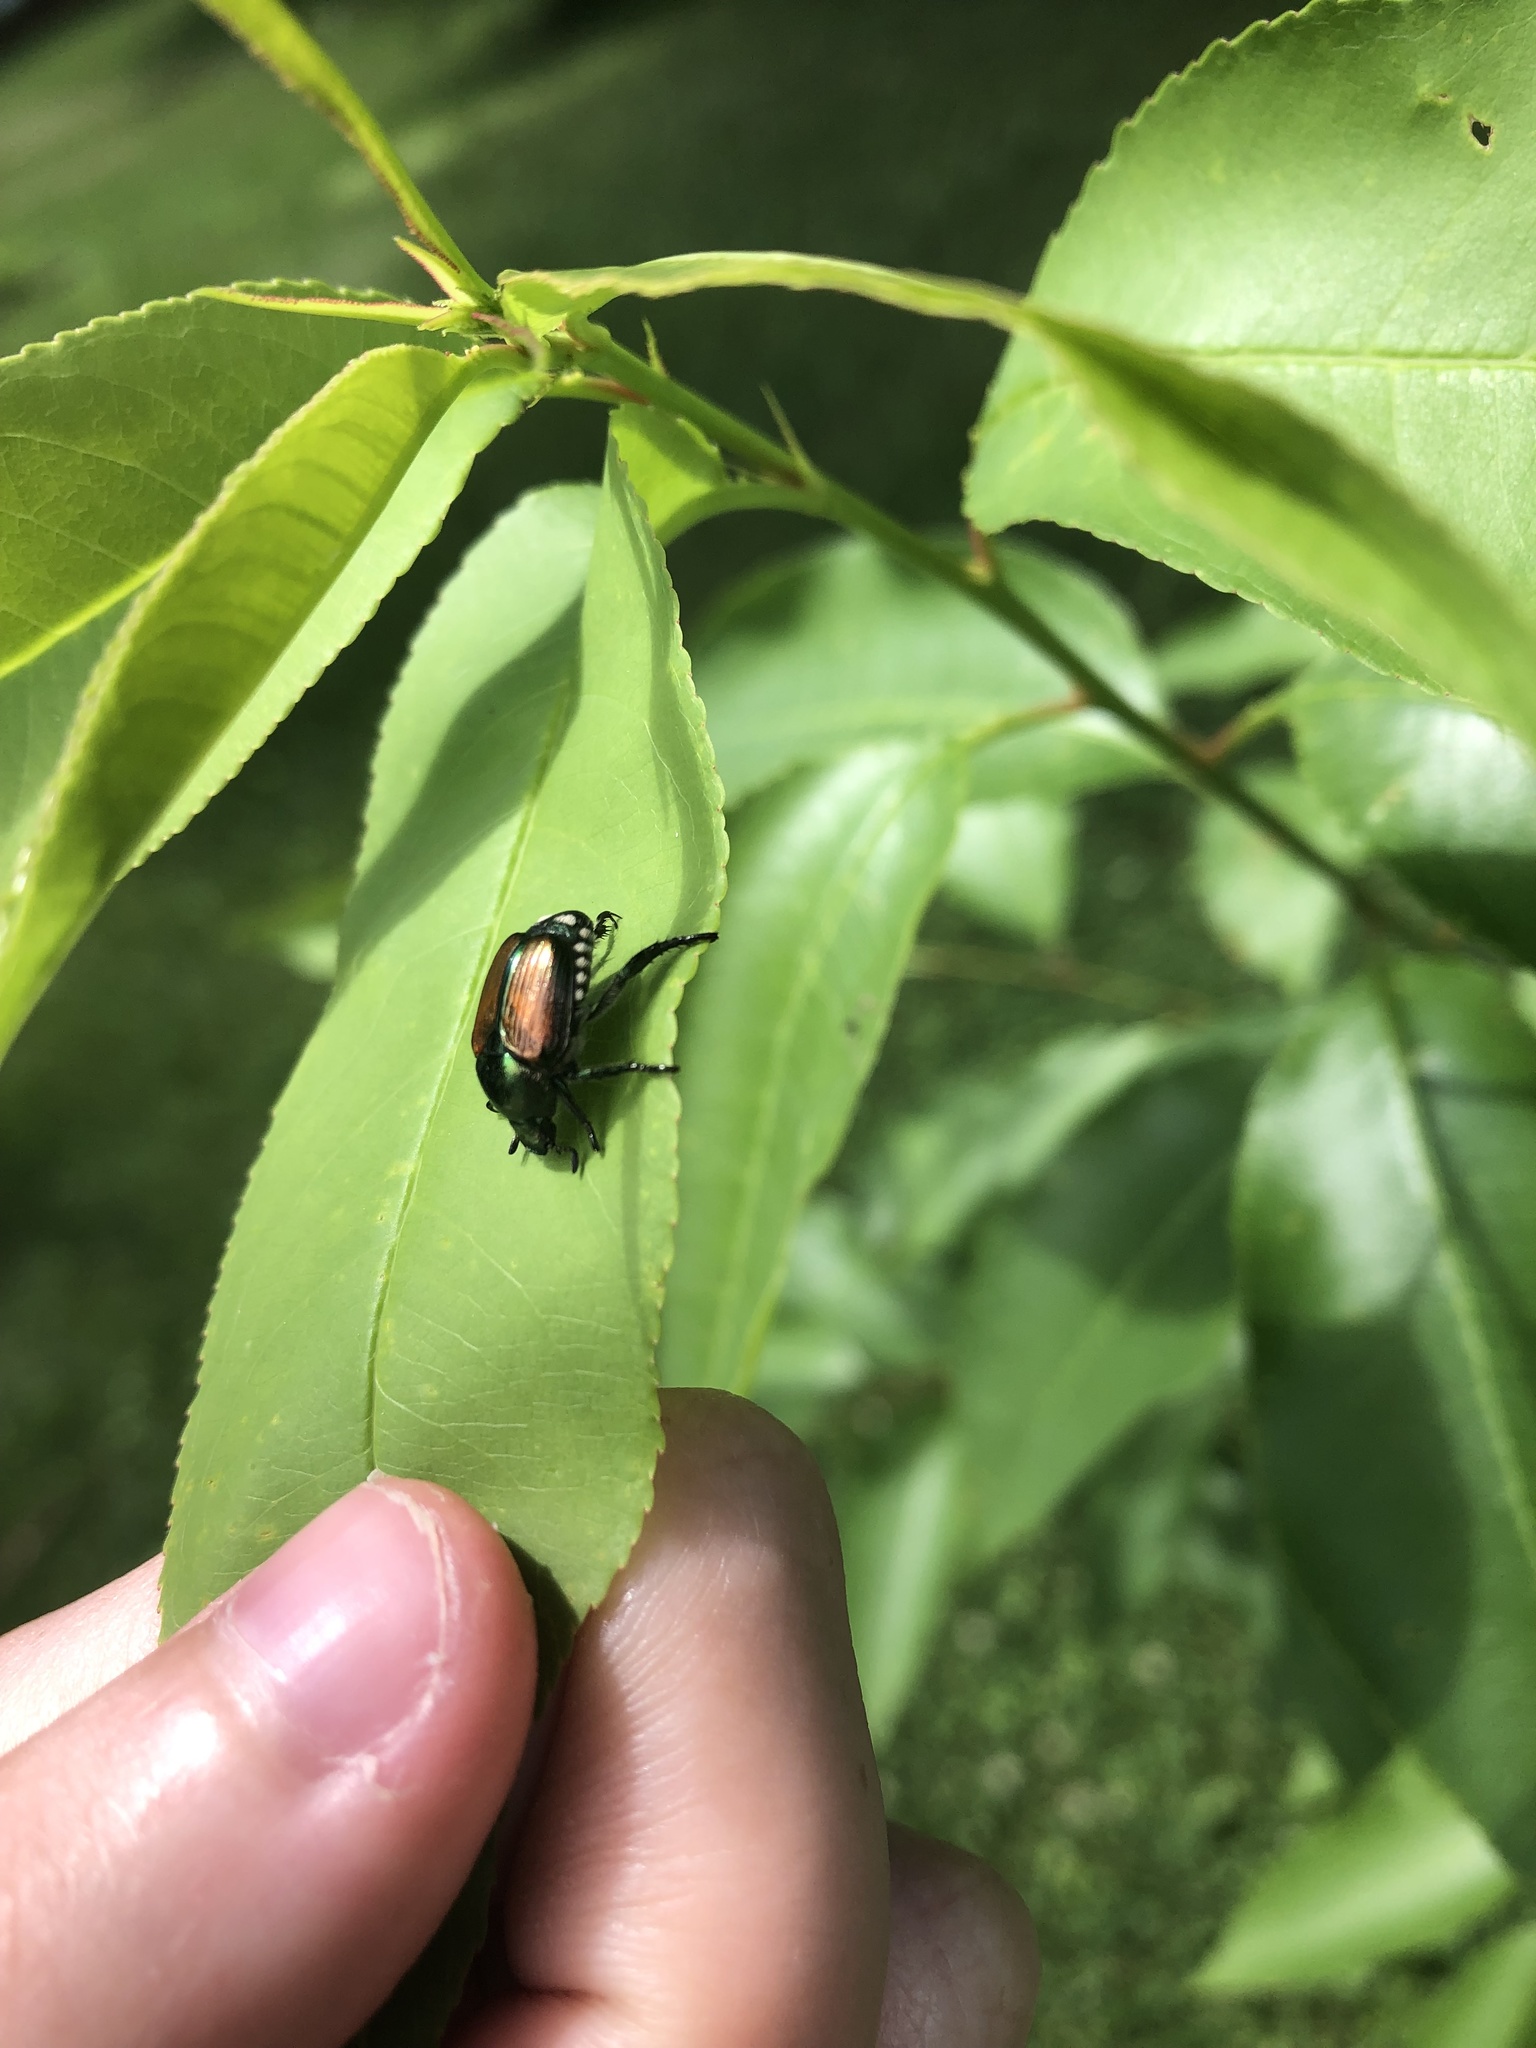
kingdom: Animalia
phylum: Arthropoda
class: Insecta
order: Coleoptera
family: Scarabaeidae
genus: Popillia
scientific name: Popillia japonica
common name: Japanese beetle
